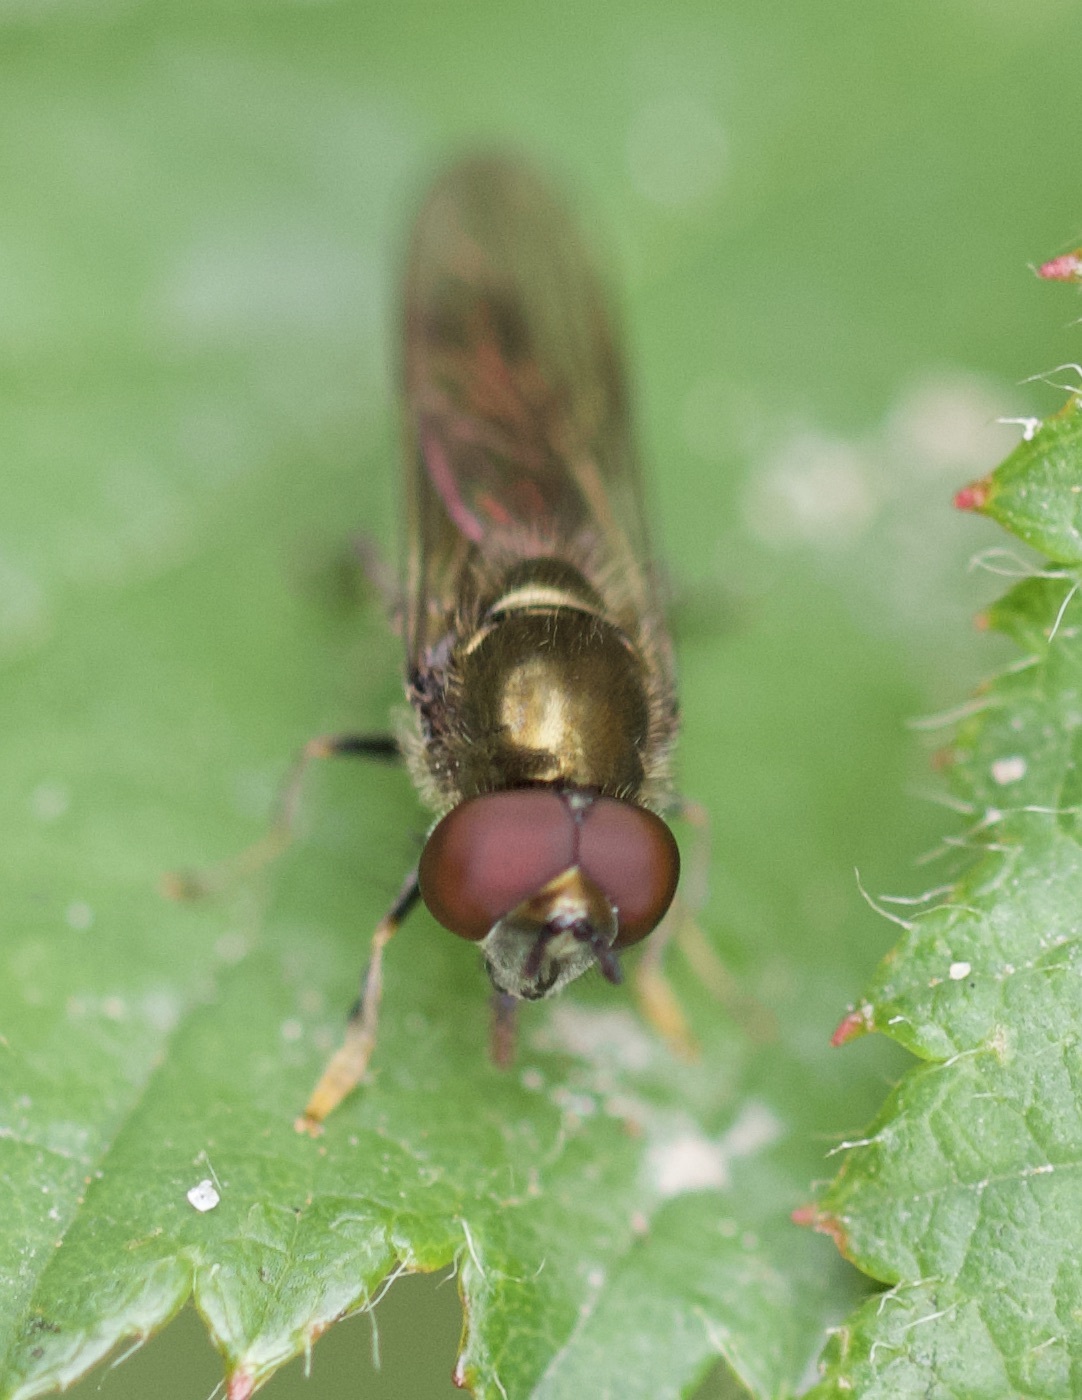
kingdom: Animalia
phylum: Arthropoda
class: Insecta
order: Diptera
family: Syrphidae
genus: Platycheirus
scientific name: Platycheirus albimanus
